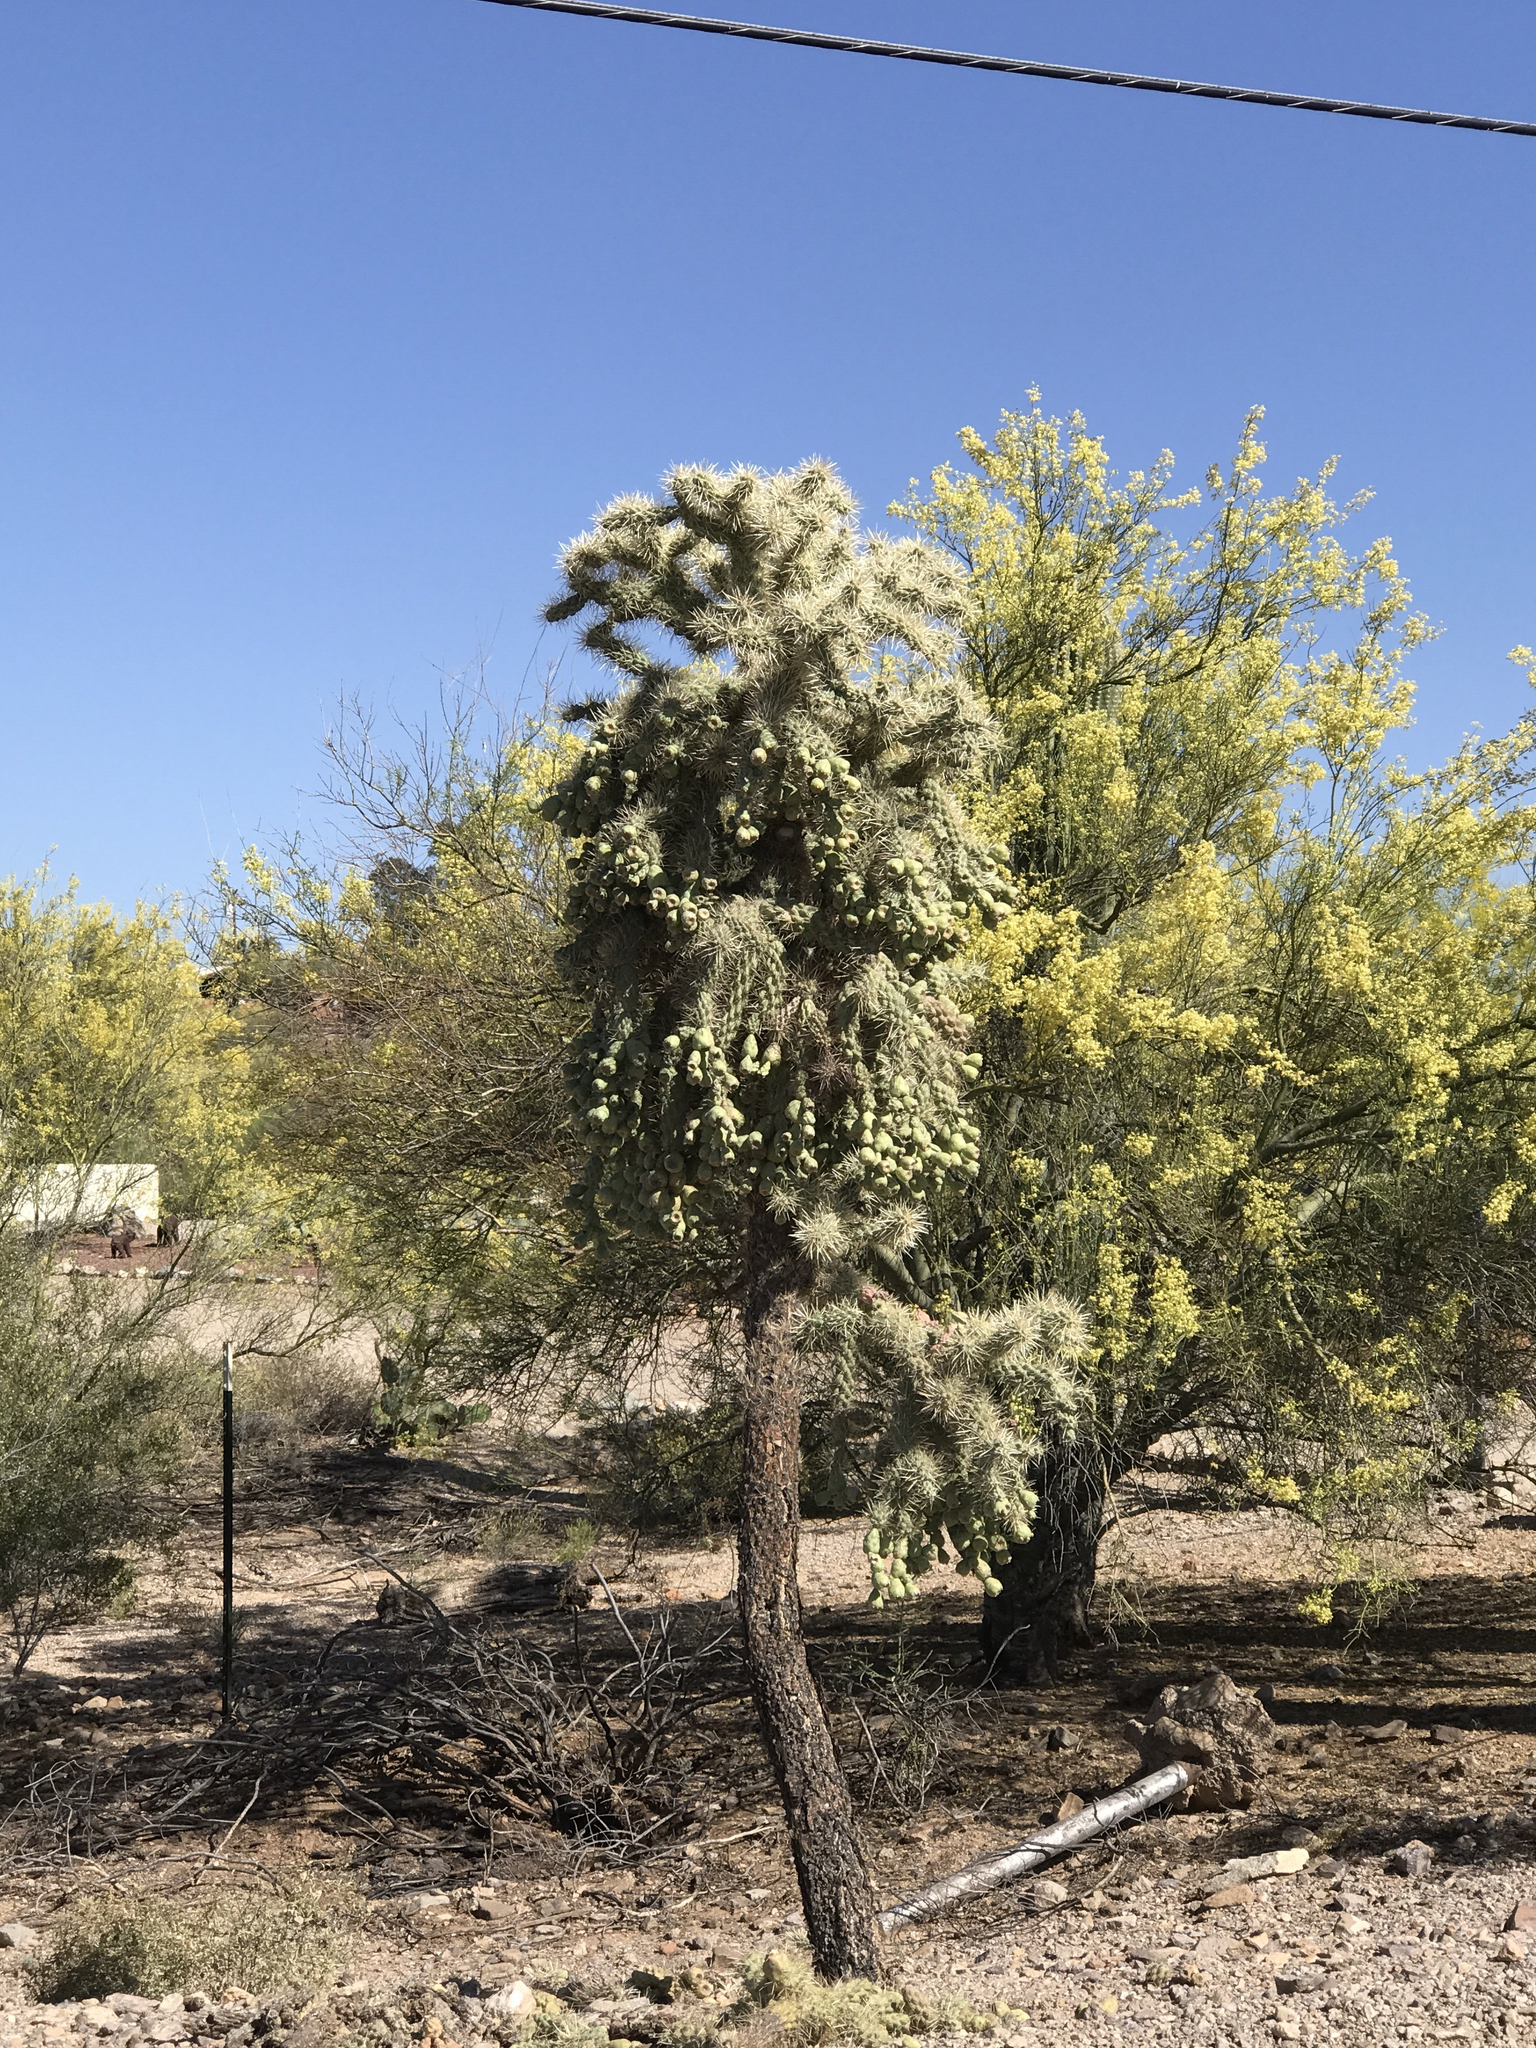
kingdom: Plantae
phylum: Tracheophyta
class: Magnoliopsida
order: Caryophyllales
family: Cactaceae
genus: Cylindropuntia
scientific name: Cylindropuntia fulgida
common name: Jumping cholla
